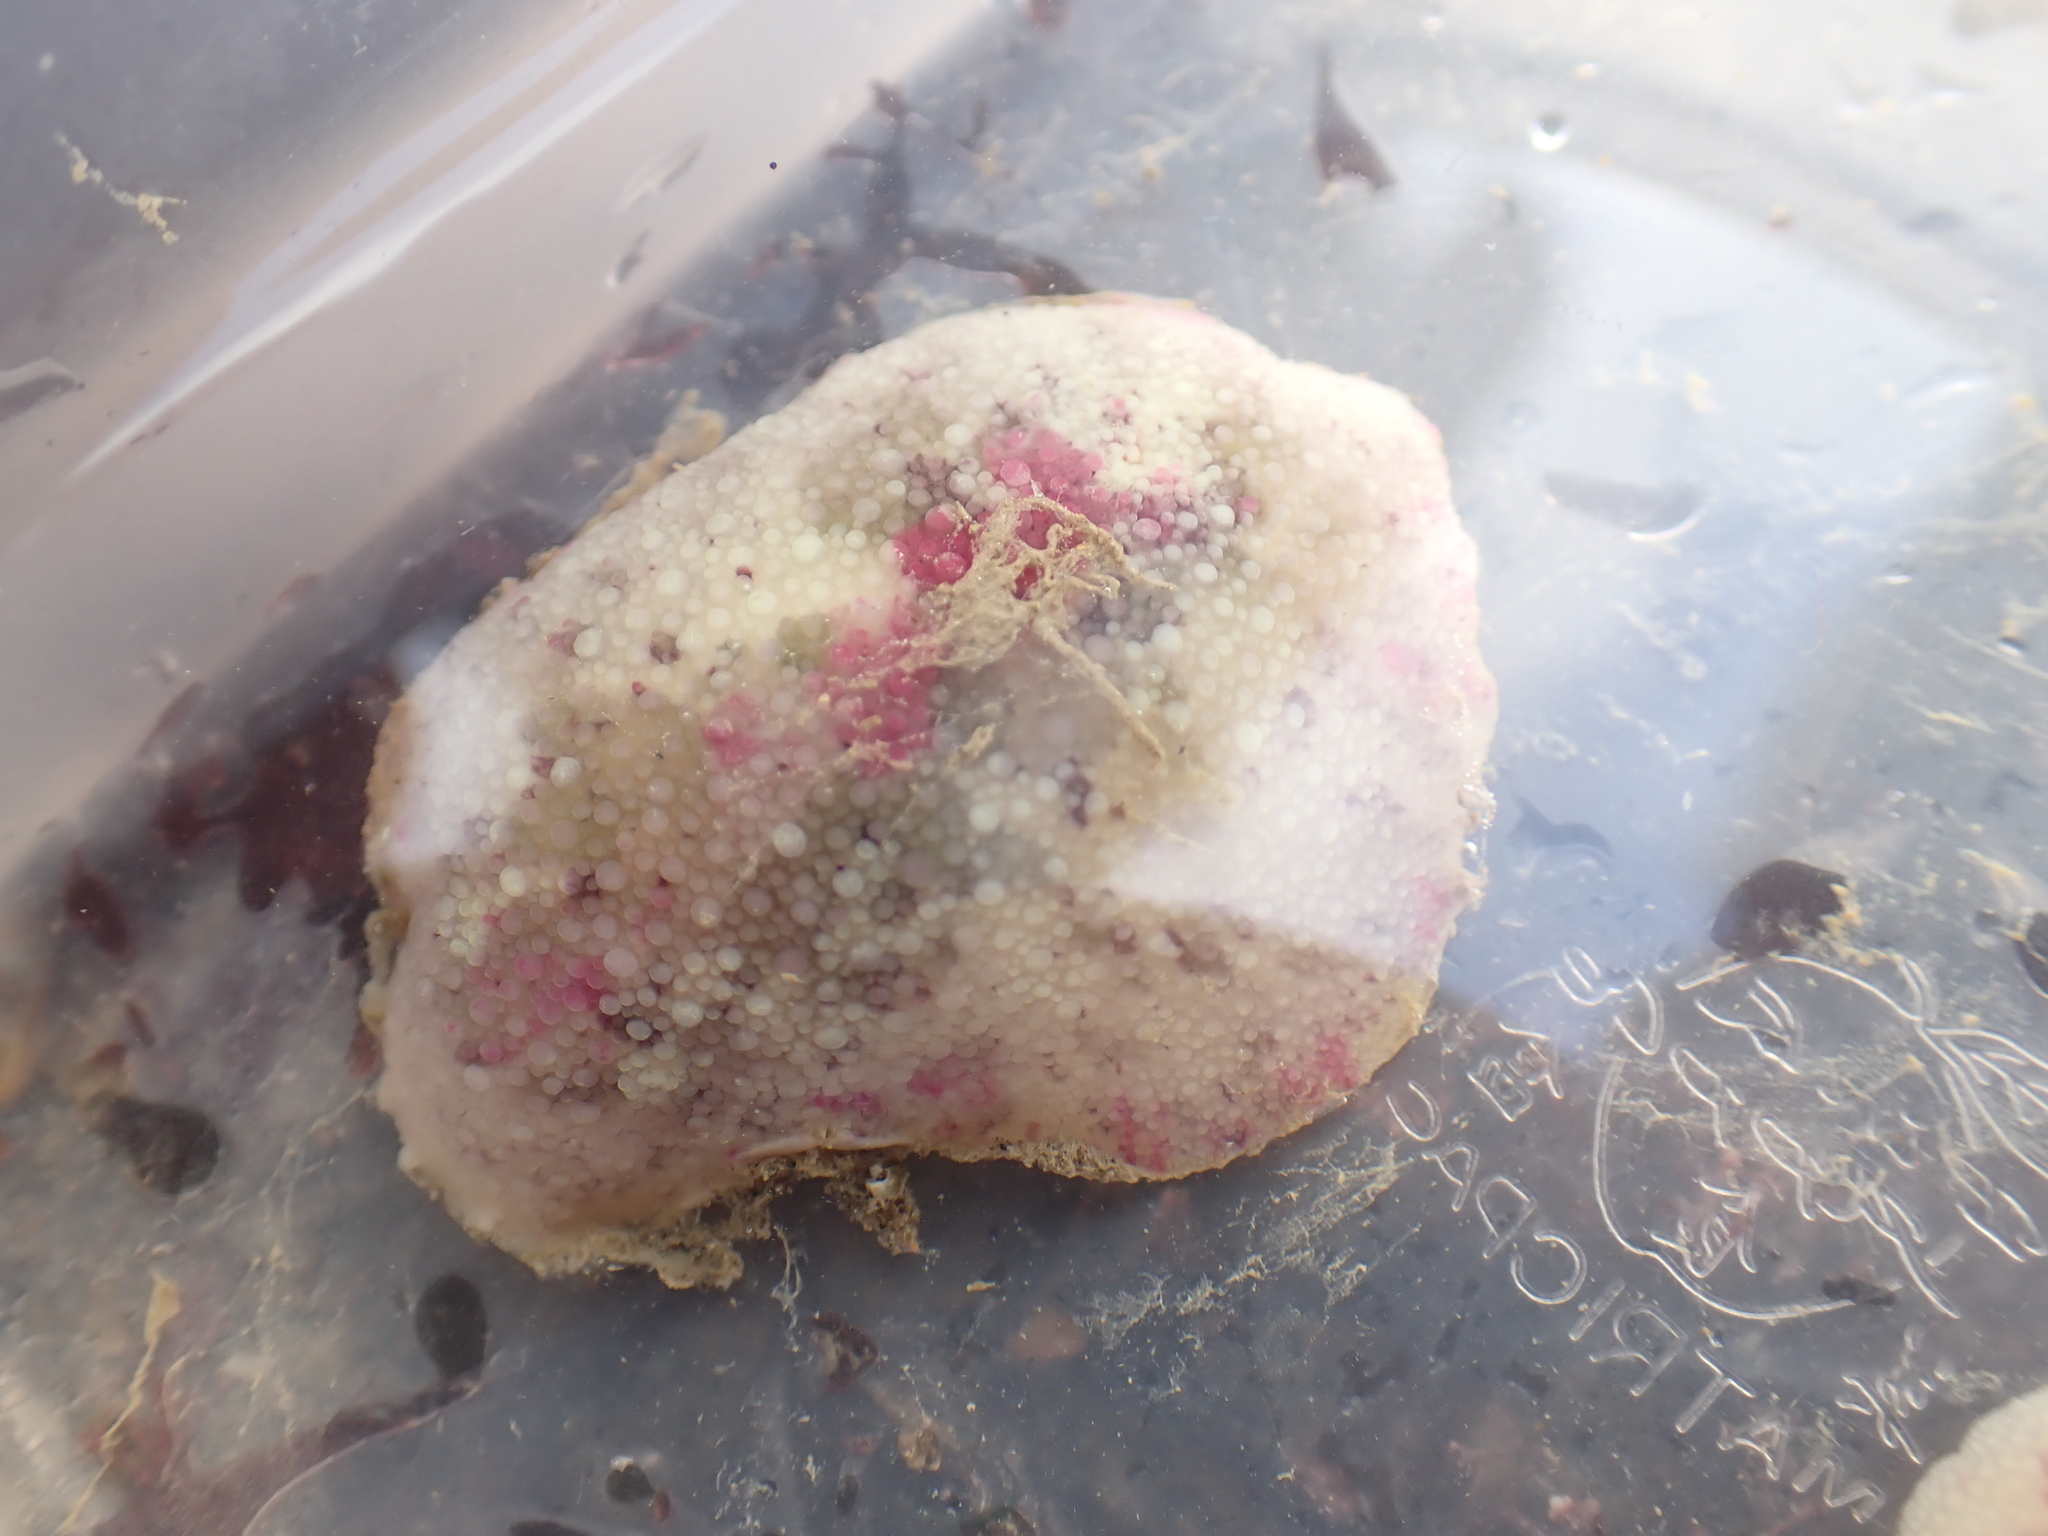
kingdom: Animalia
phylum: Mollusca
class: Gastropoda
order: Nudibranchia
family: Dorididae
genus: Doris
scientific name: Doris pseudoargus
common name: Sea lemon
